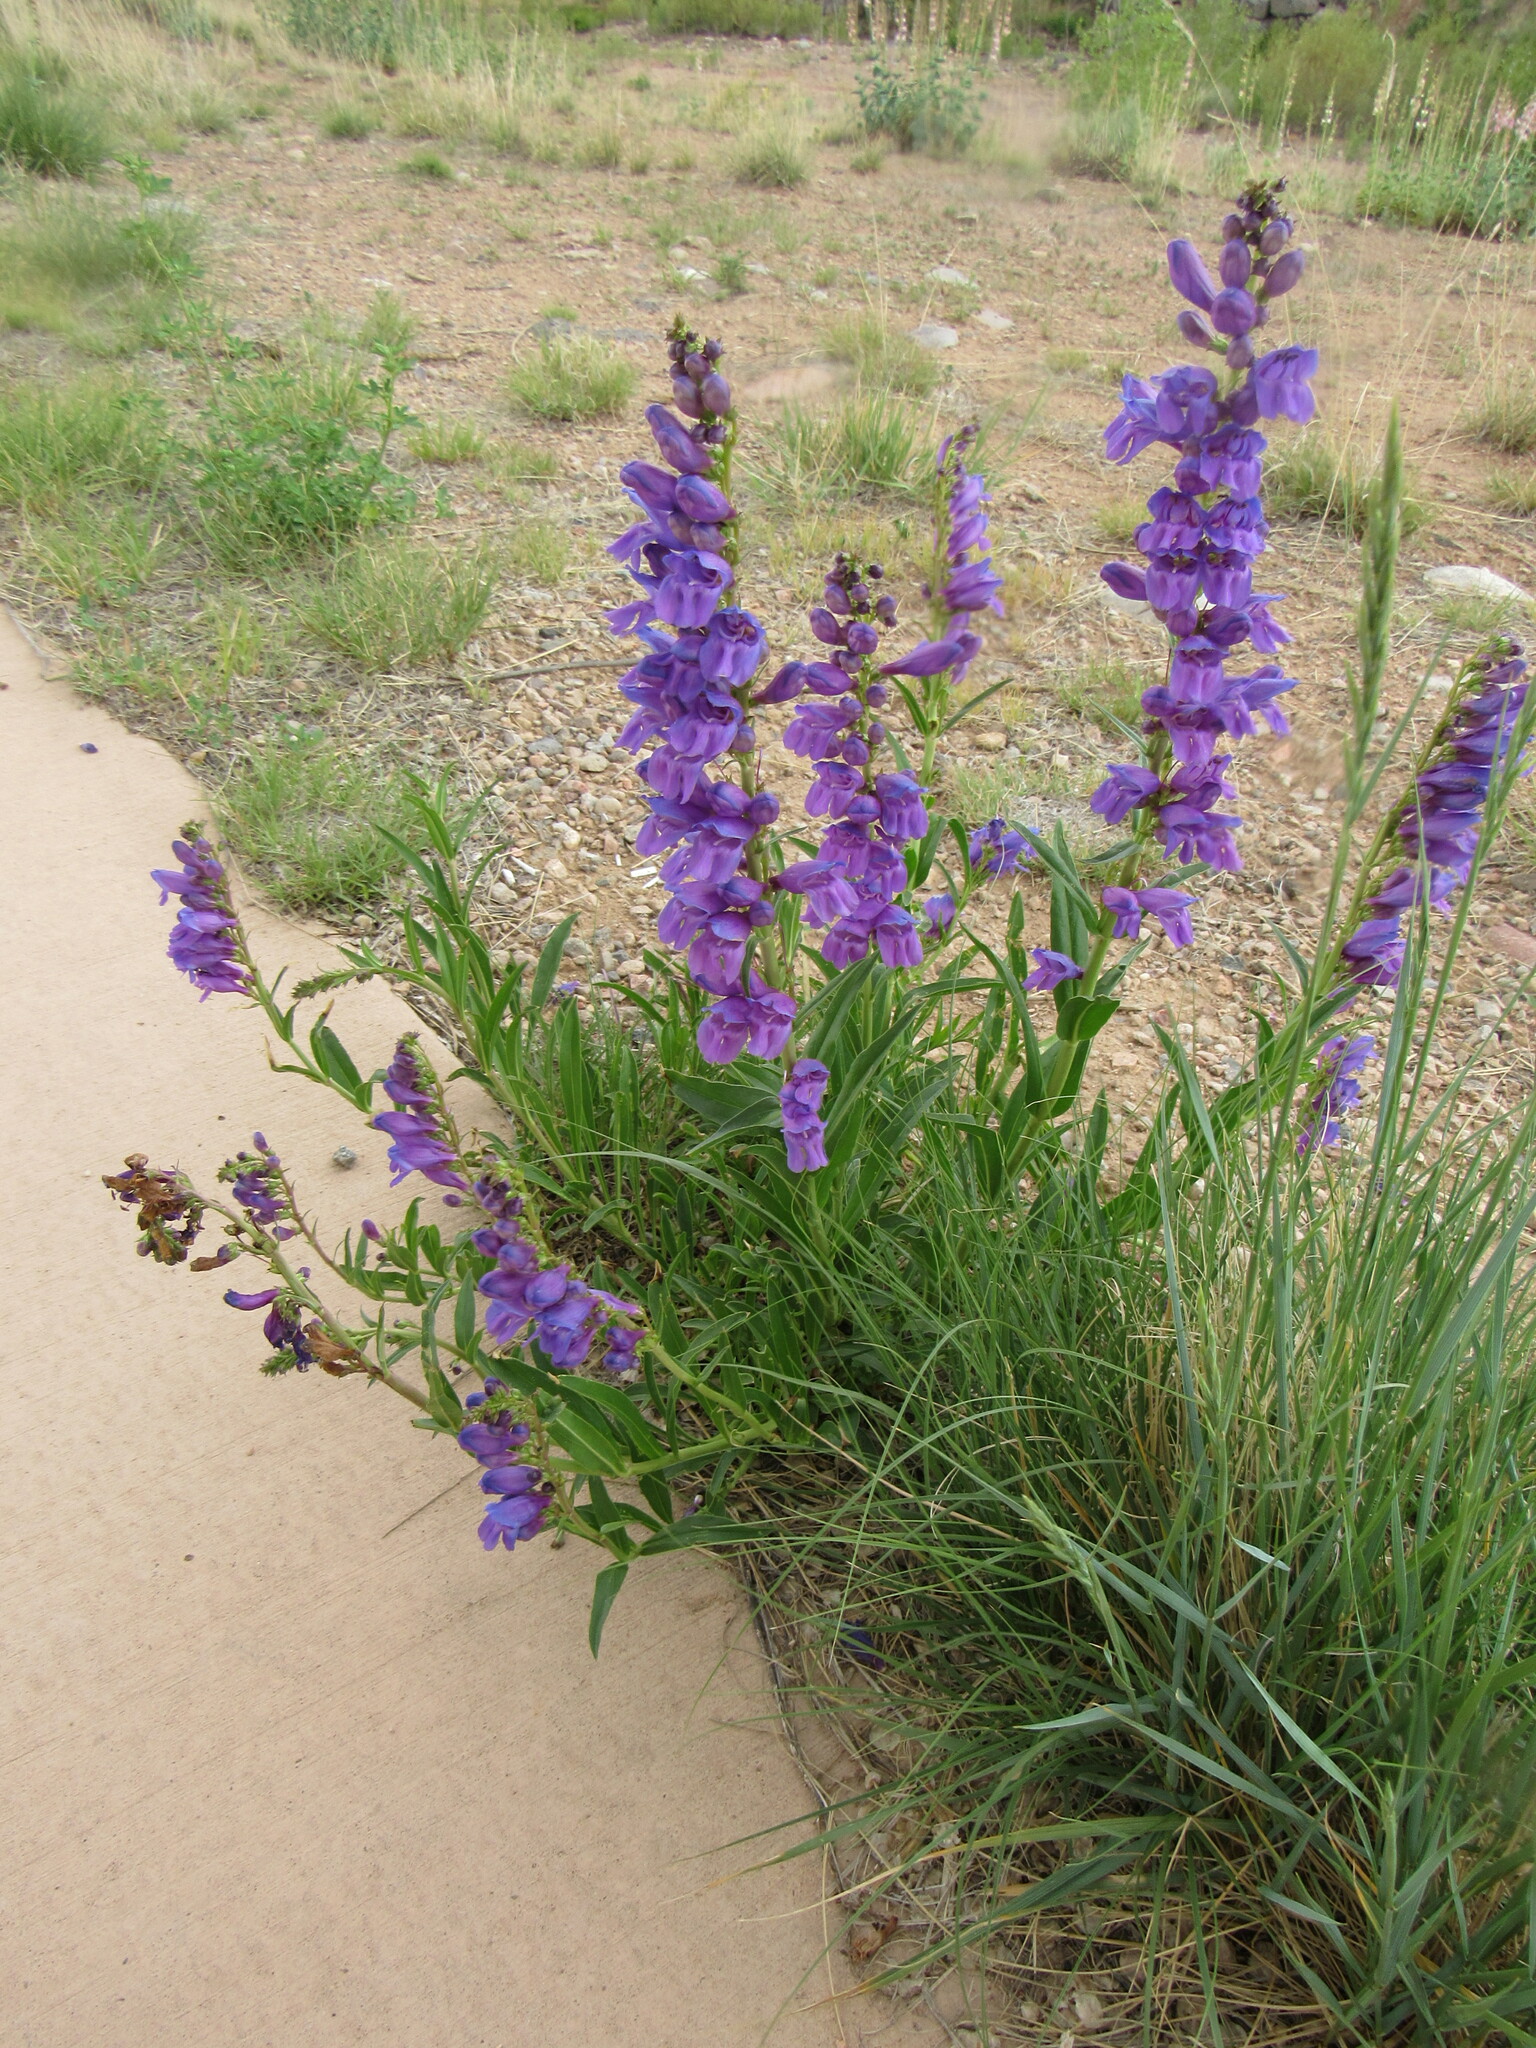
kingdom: Plantae
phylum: Tracheophyta
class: Magnoliopsida
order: Lamiales
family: Plantaginaceae
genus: Penstemon
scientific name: Penstemon strictus
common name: Rocky mountain penstemon
